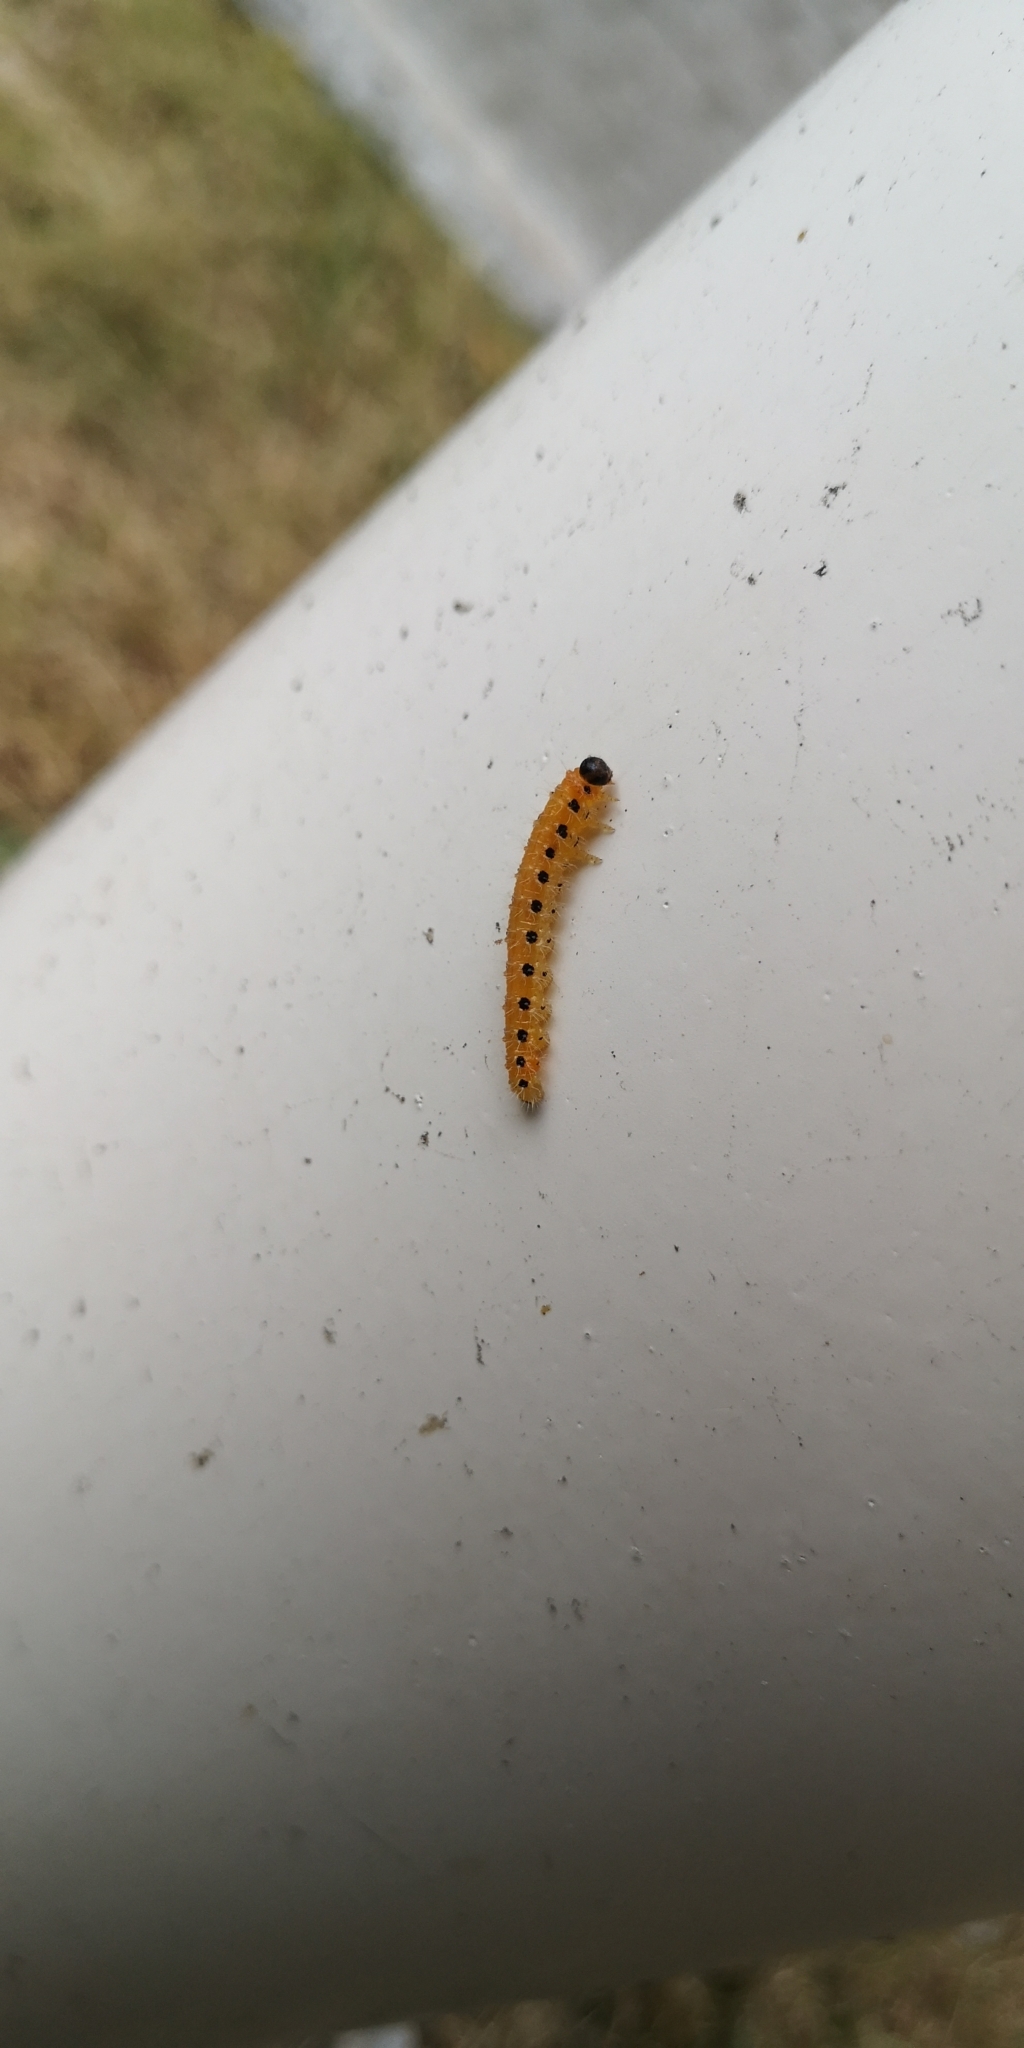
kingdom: Animalia
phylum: Arthropoda
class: Insecta
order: Hymenoptera
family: Tenthredinidae
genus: Cladius
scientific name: Cladius grandis
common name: Common sawfly
